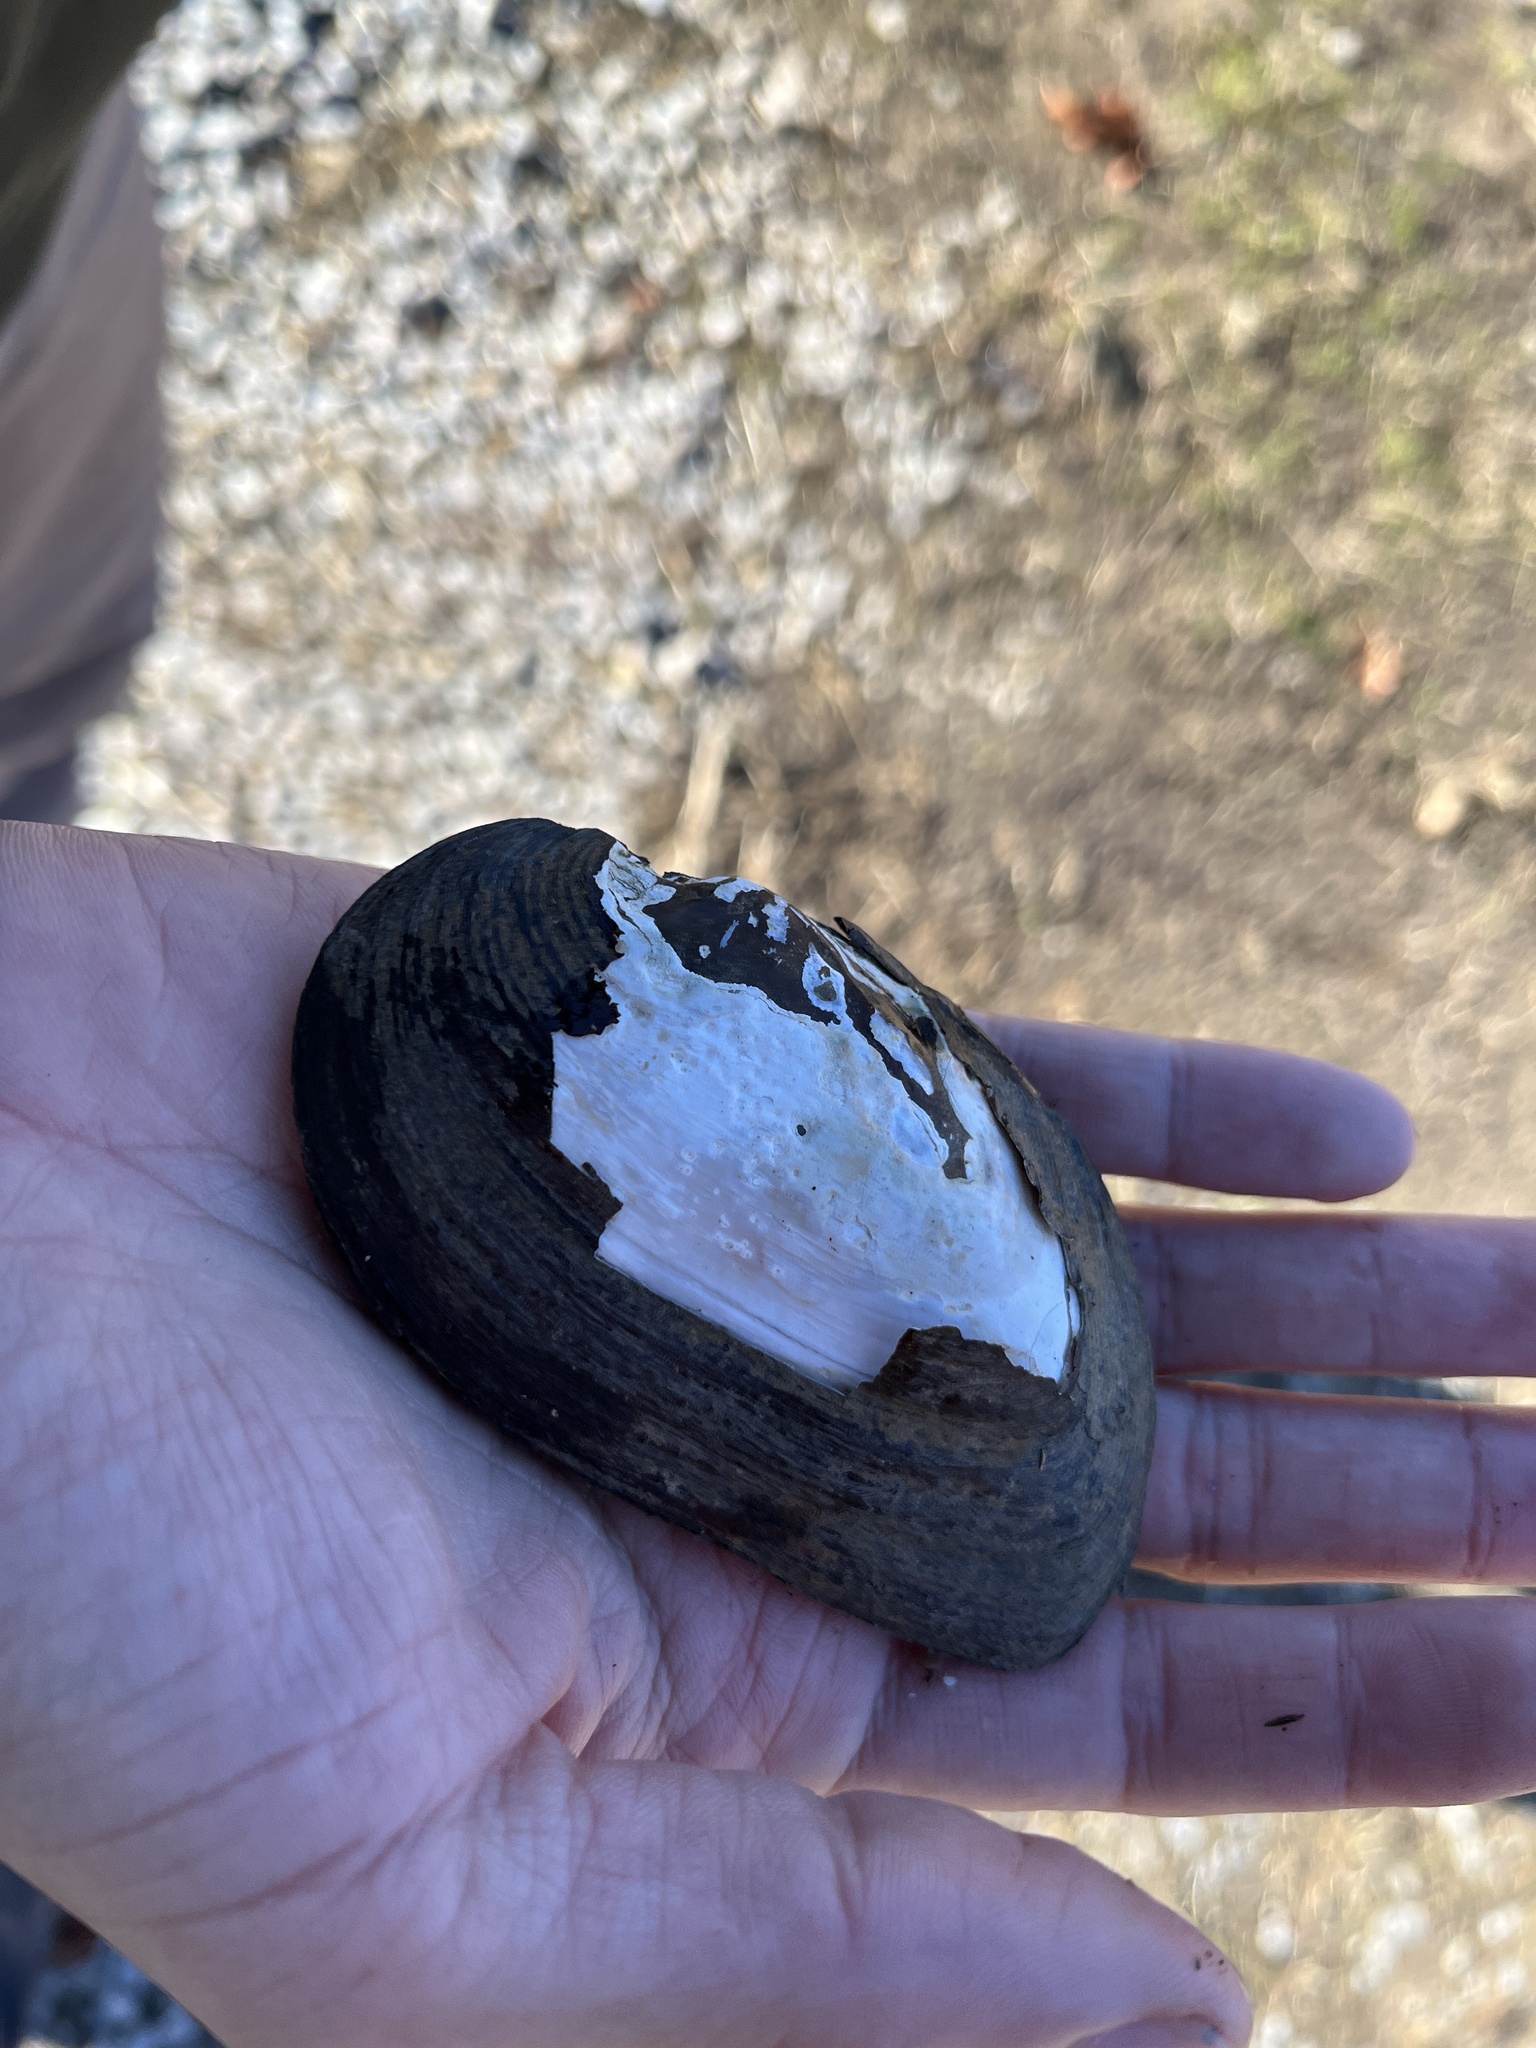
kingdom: Animalia
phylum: Mollusca
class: Bivalvia
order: Unionida
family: Unionidae
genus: Elliptio
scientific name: Elliptio complanata
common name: Eastern elliptio
